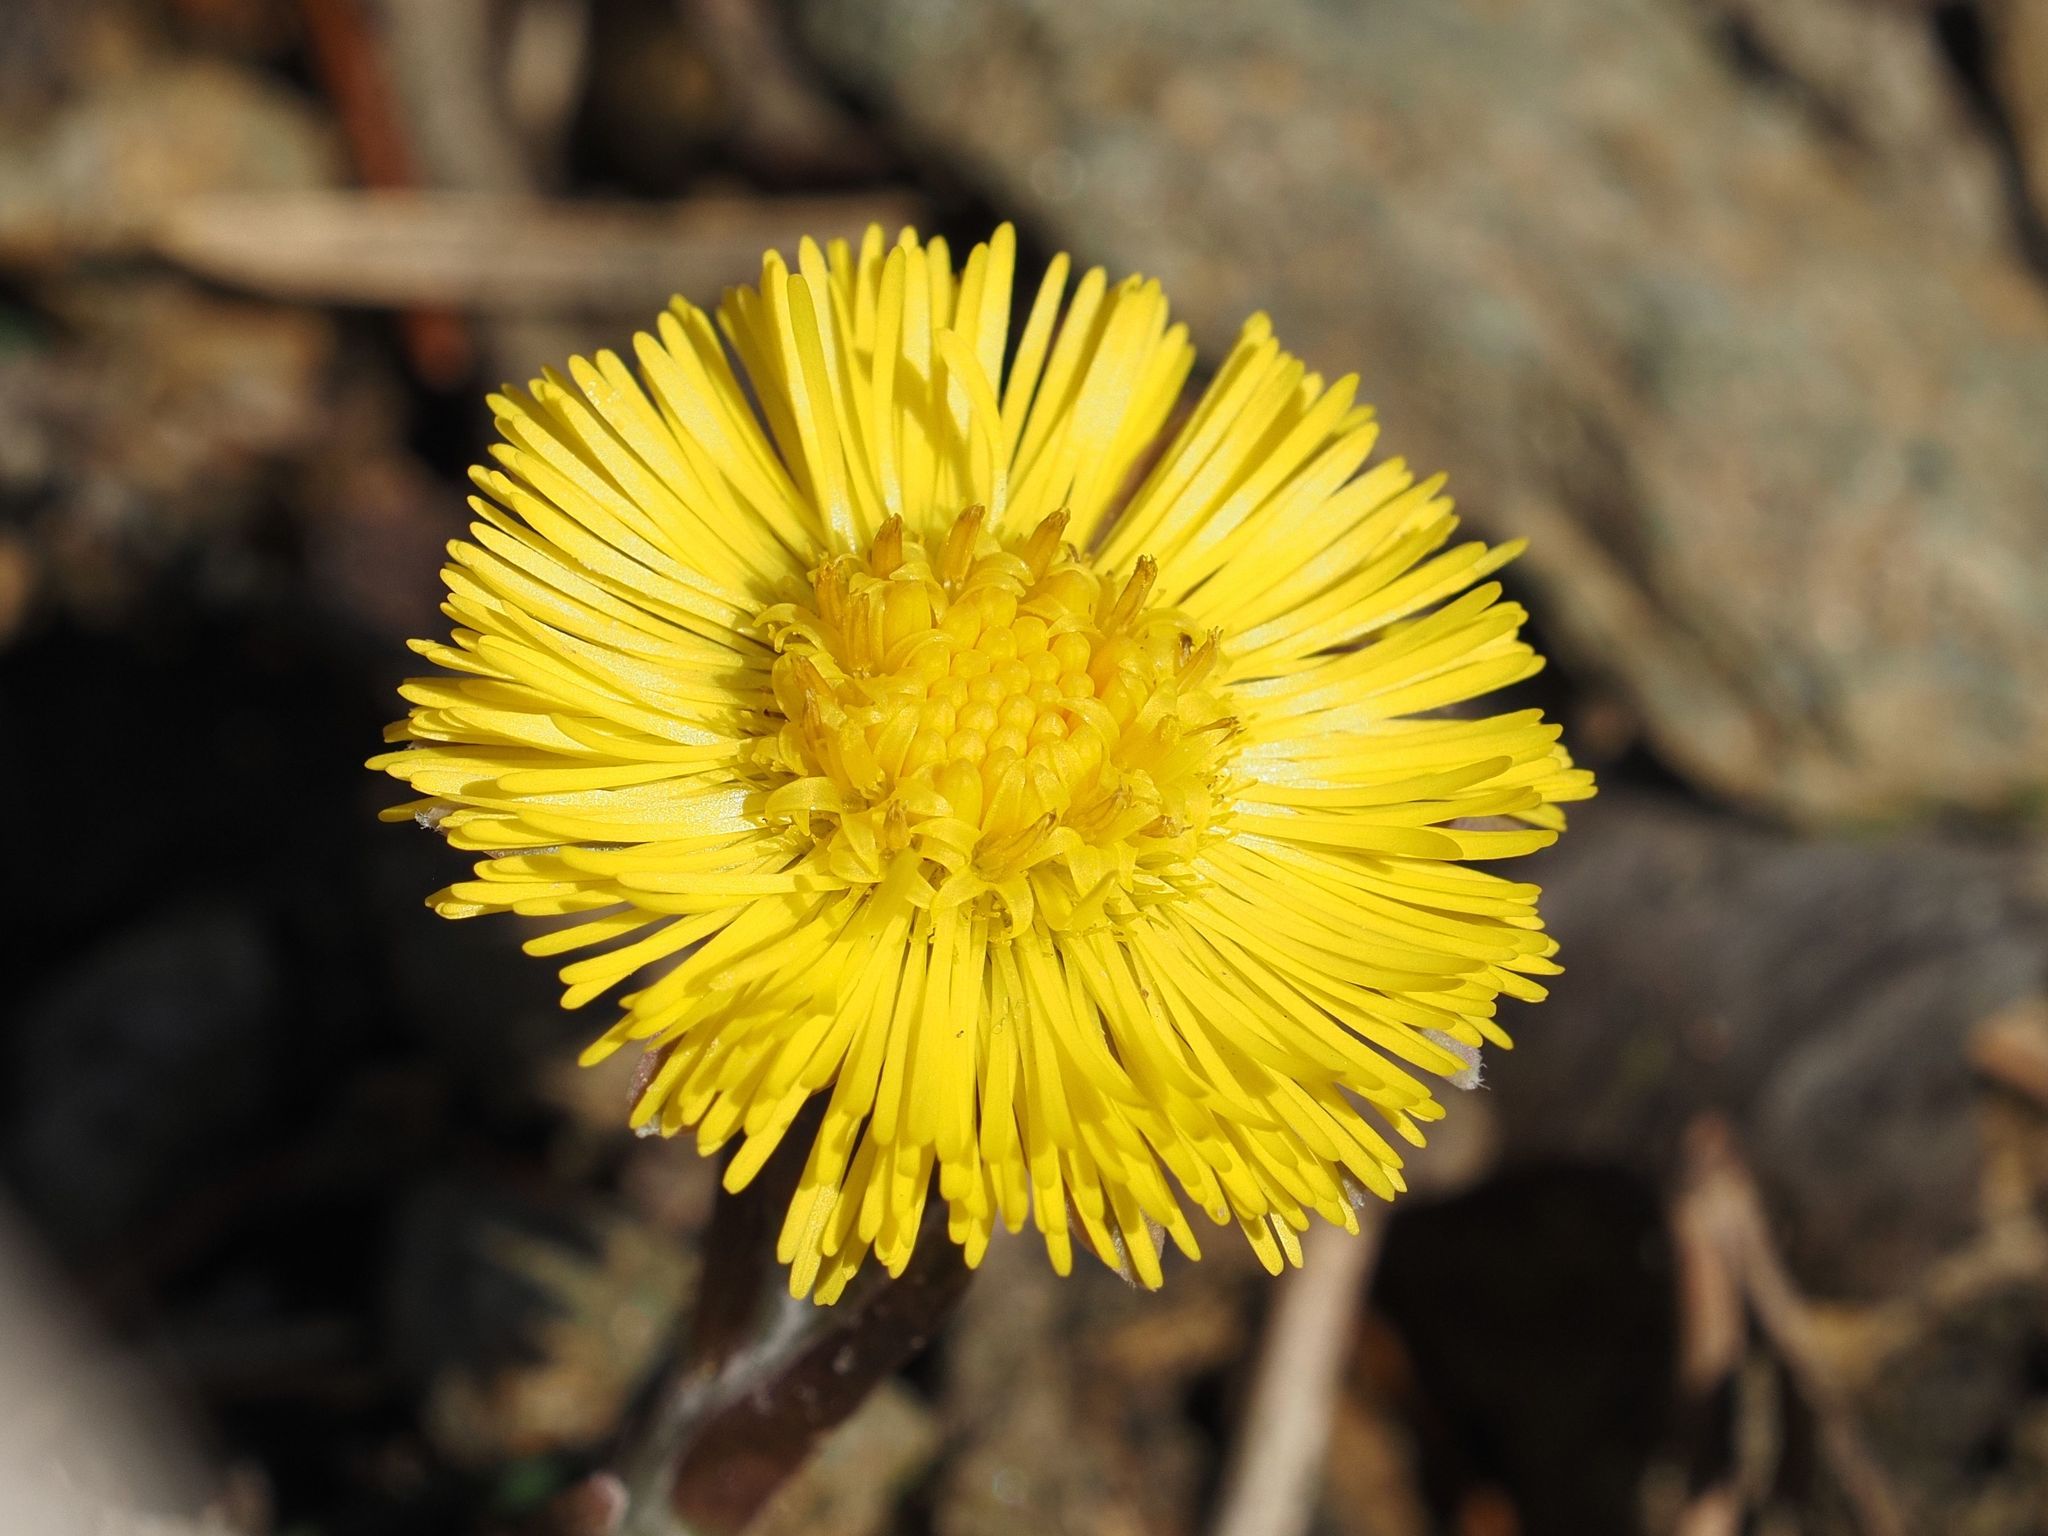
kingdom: Plantae
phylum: Tracheophyta
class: Magnoliopsida
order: Asterales
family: Asteraceae
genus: Tussilago
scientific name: Tussilago farfara
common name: Coltsfoot
